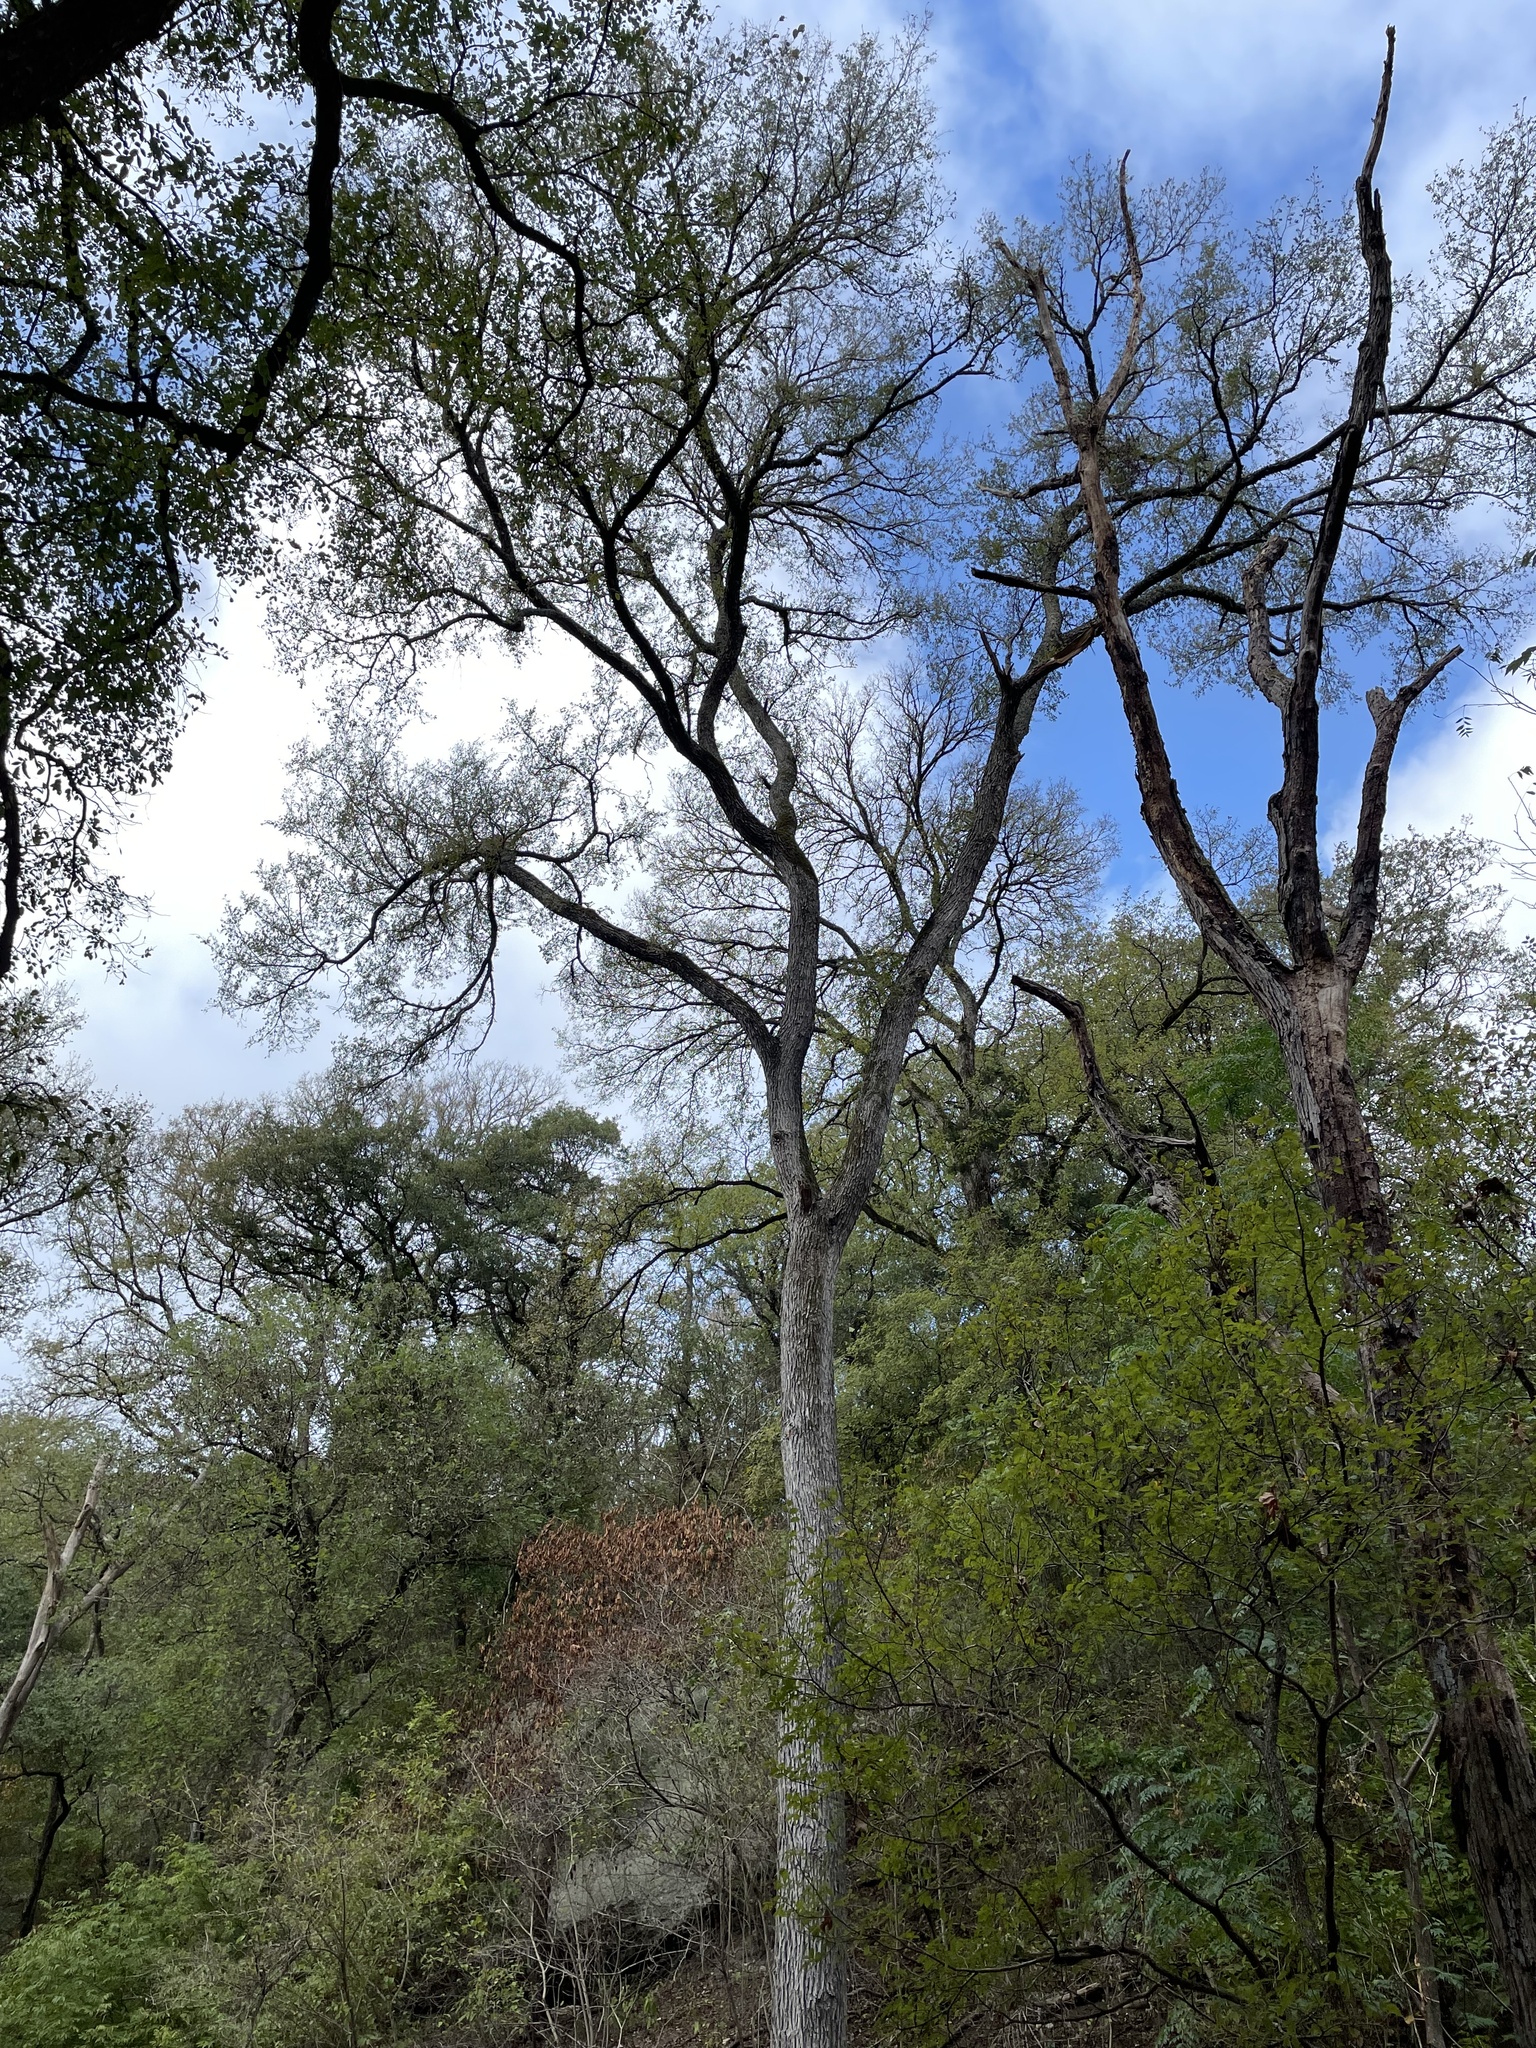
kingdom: Plantae
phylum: Tracheophyta
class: Magnoliopsida
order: Rosales
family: Ulmaceae
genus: Ulmus
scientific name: Ulmus crassifolia
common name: Basket elm
